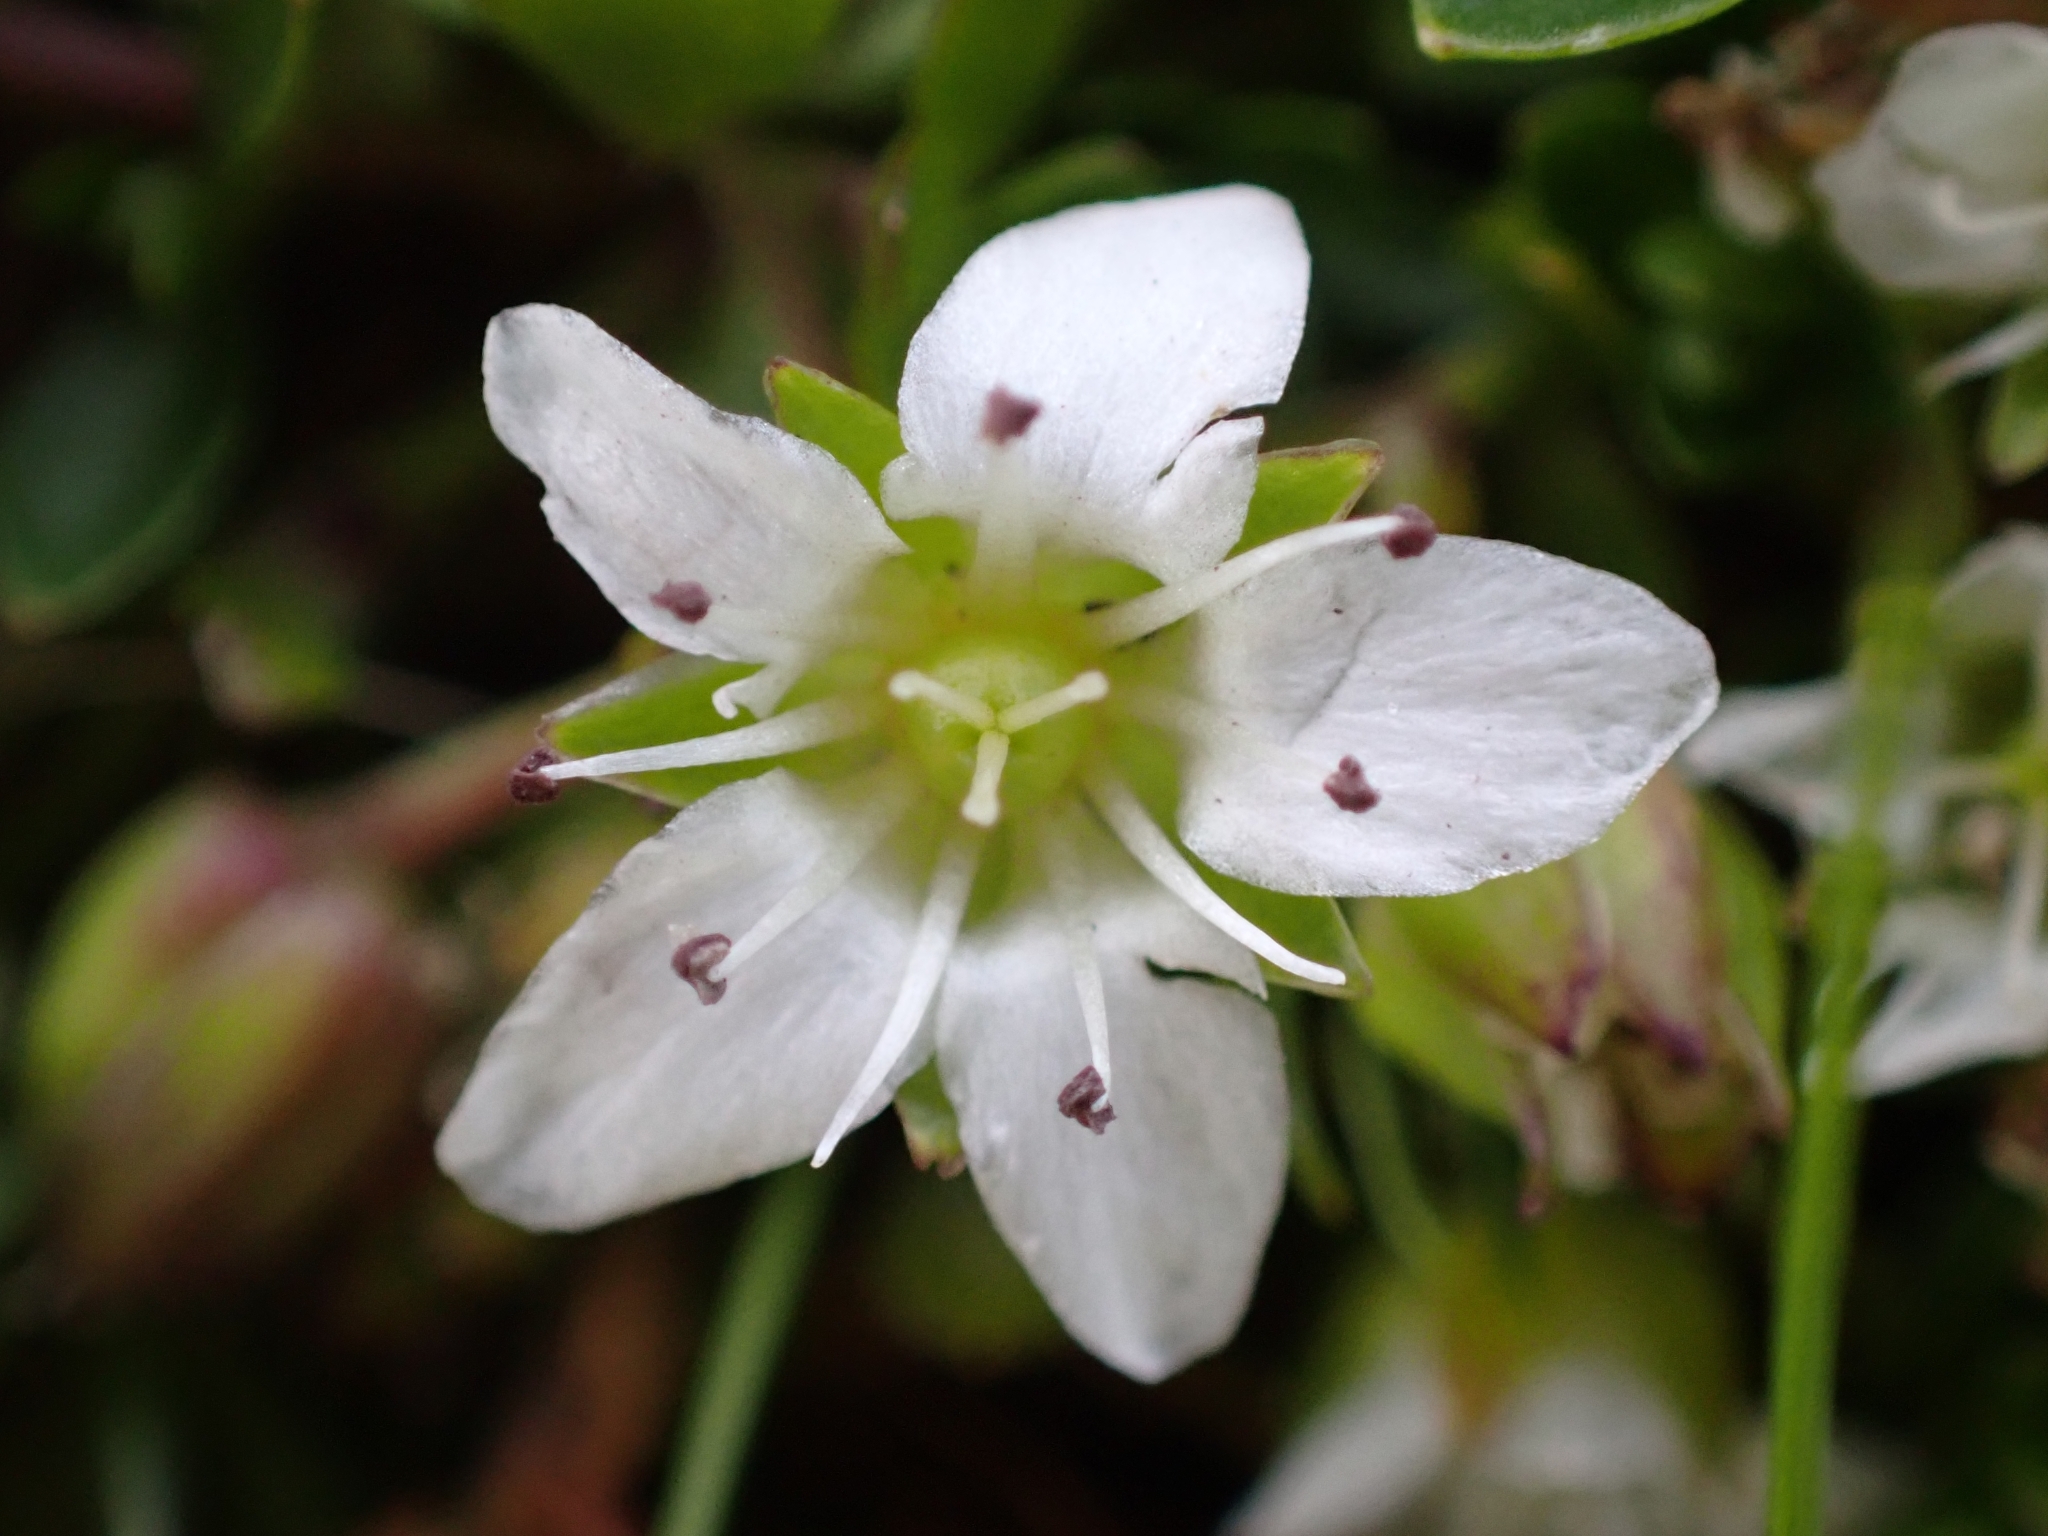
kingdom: Plantae
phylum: Tracheophyta
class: Magnoliopsida
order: Caryophyllales
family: Caryophyllaceae
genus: Arenaria
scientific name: Arenaria biflora
